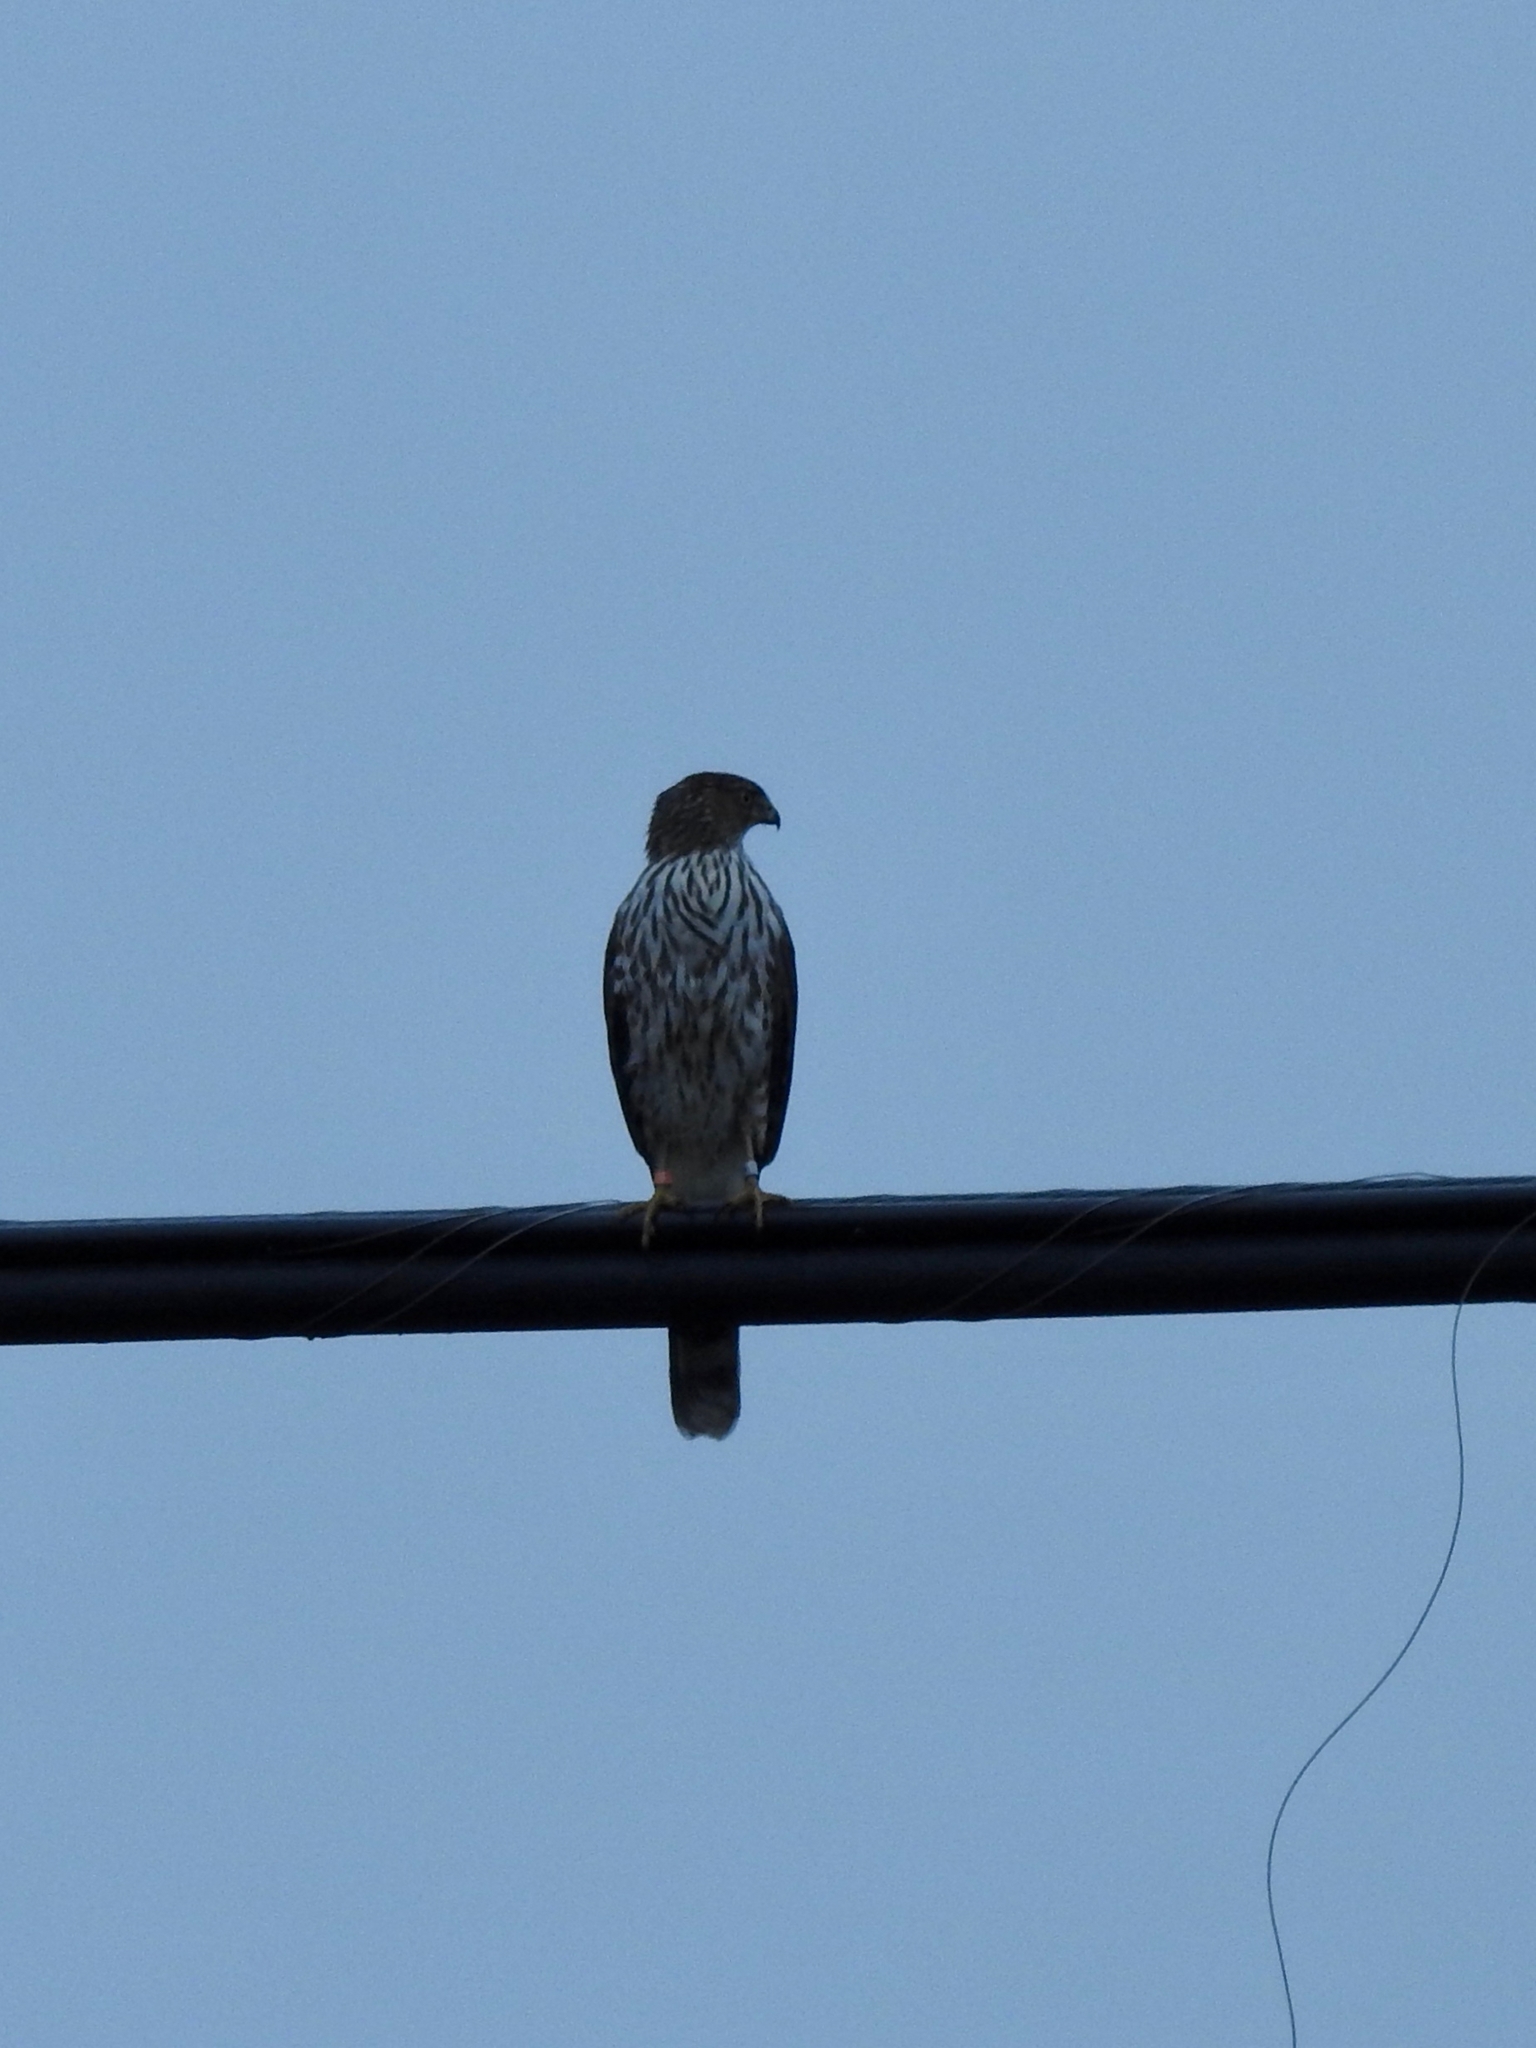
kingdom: Animalia
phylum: Chordata
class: Aves
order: Accipitriformes
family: Accipitridae
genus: Accipiter
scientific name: Accipiter cooperii
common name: Cooper's hawk
